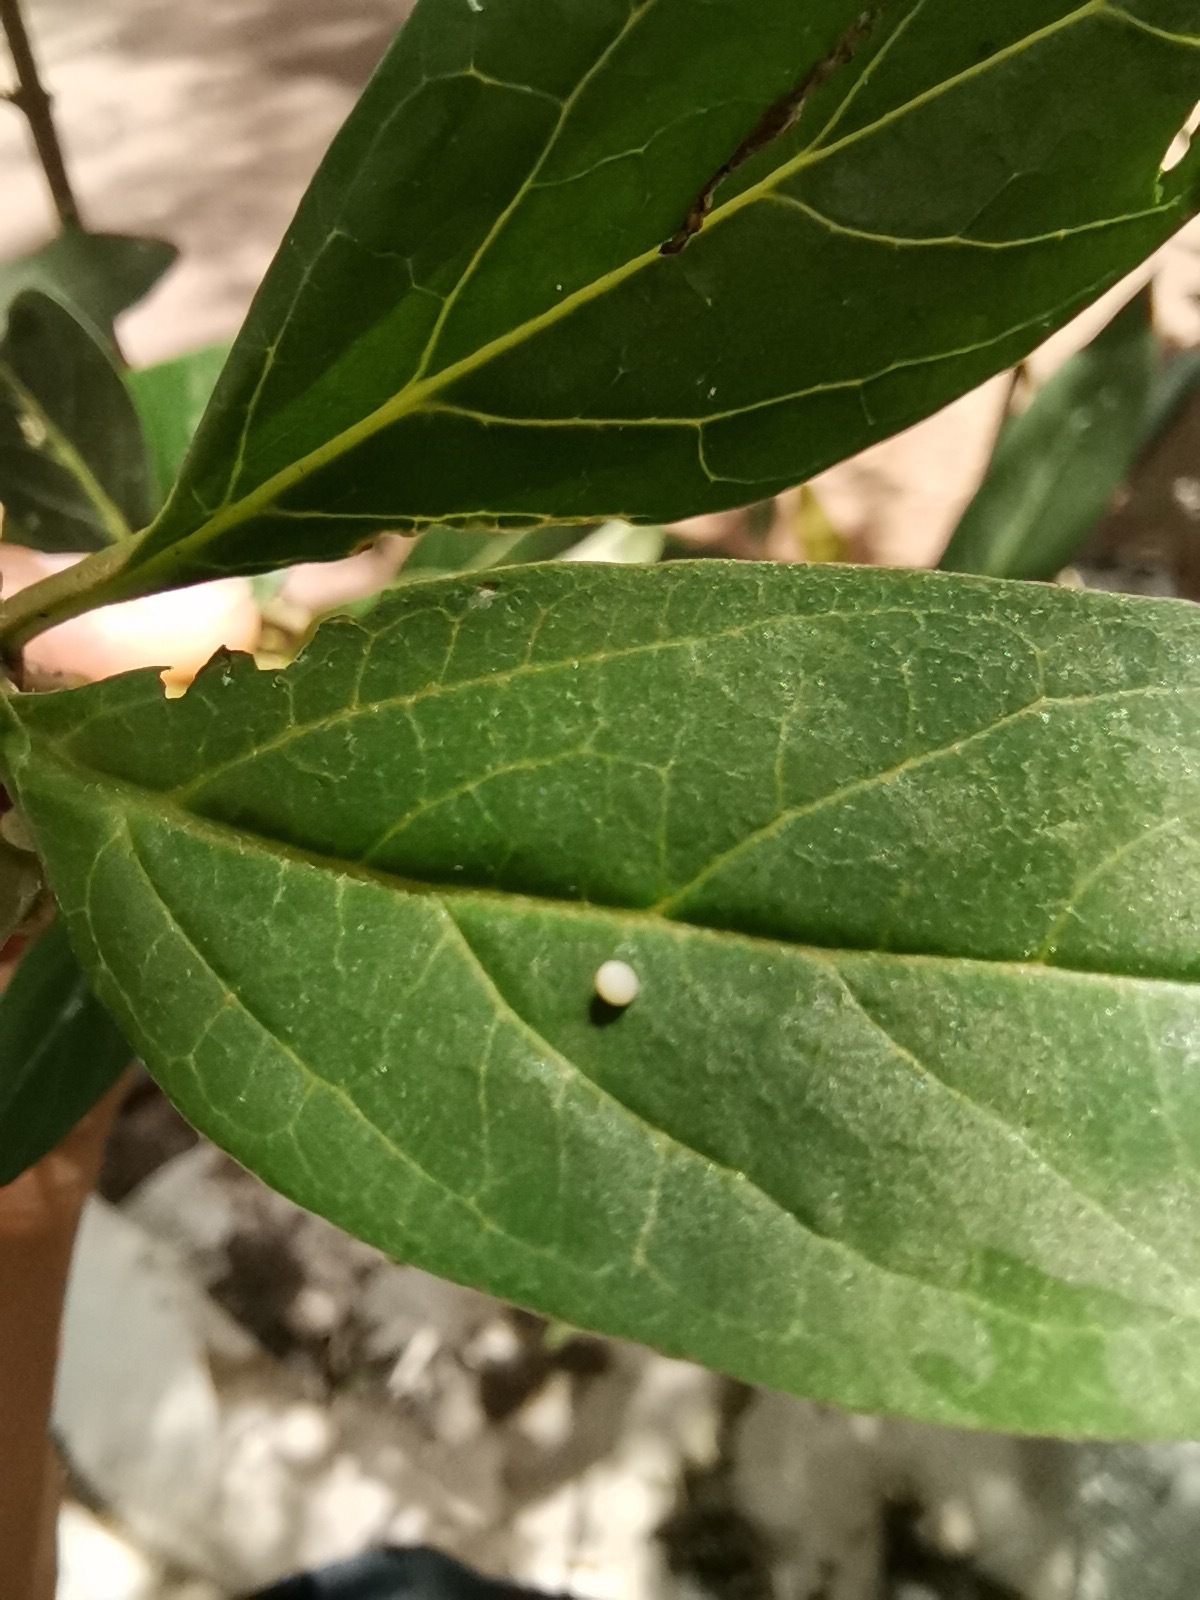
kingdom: Animalia
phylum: Arthropoda
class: Insecta
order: Lepidoptera
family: Nymphalidae
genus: Danaus
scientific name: Danaus plexippus
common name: Monarch
